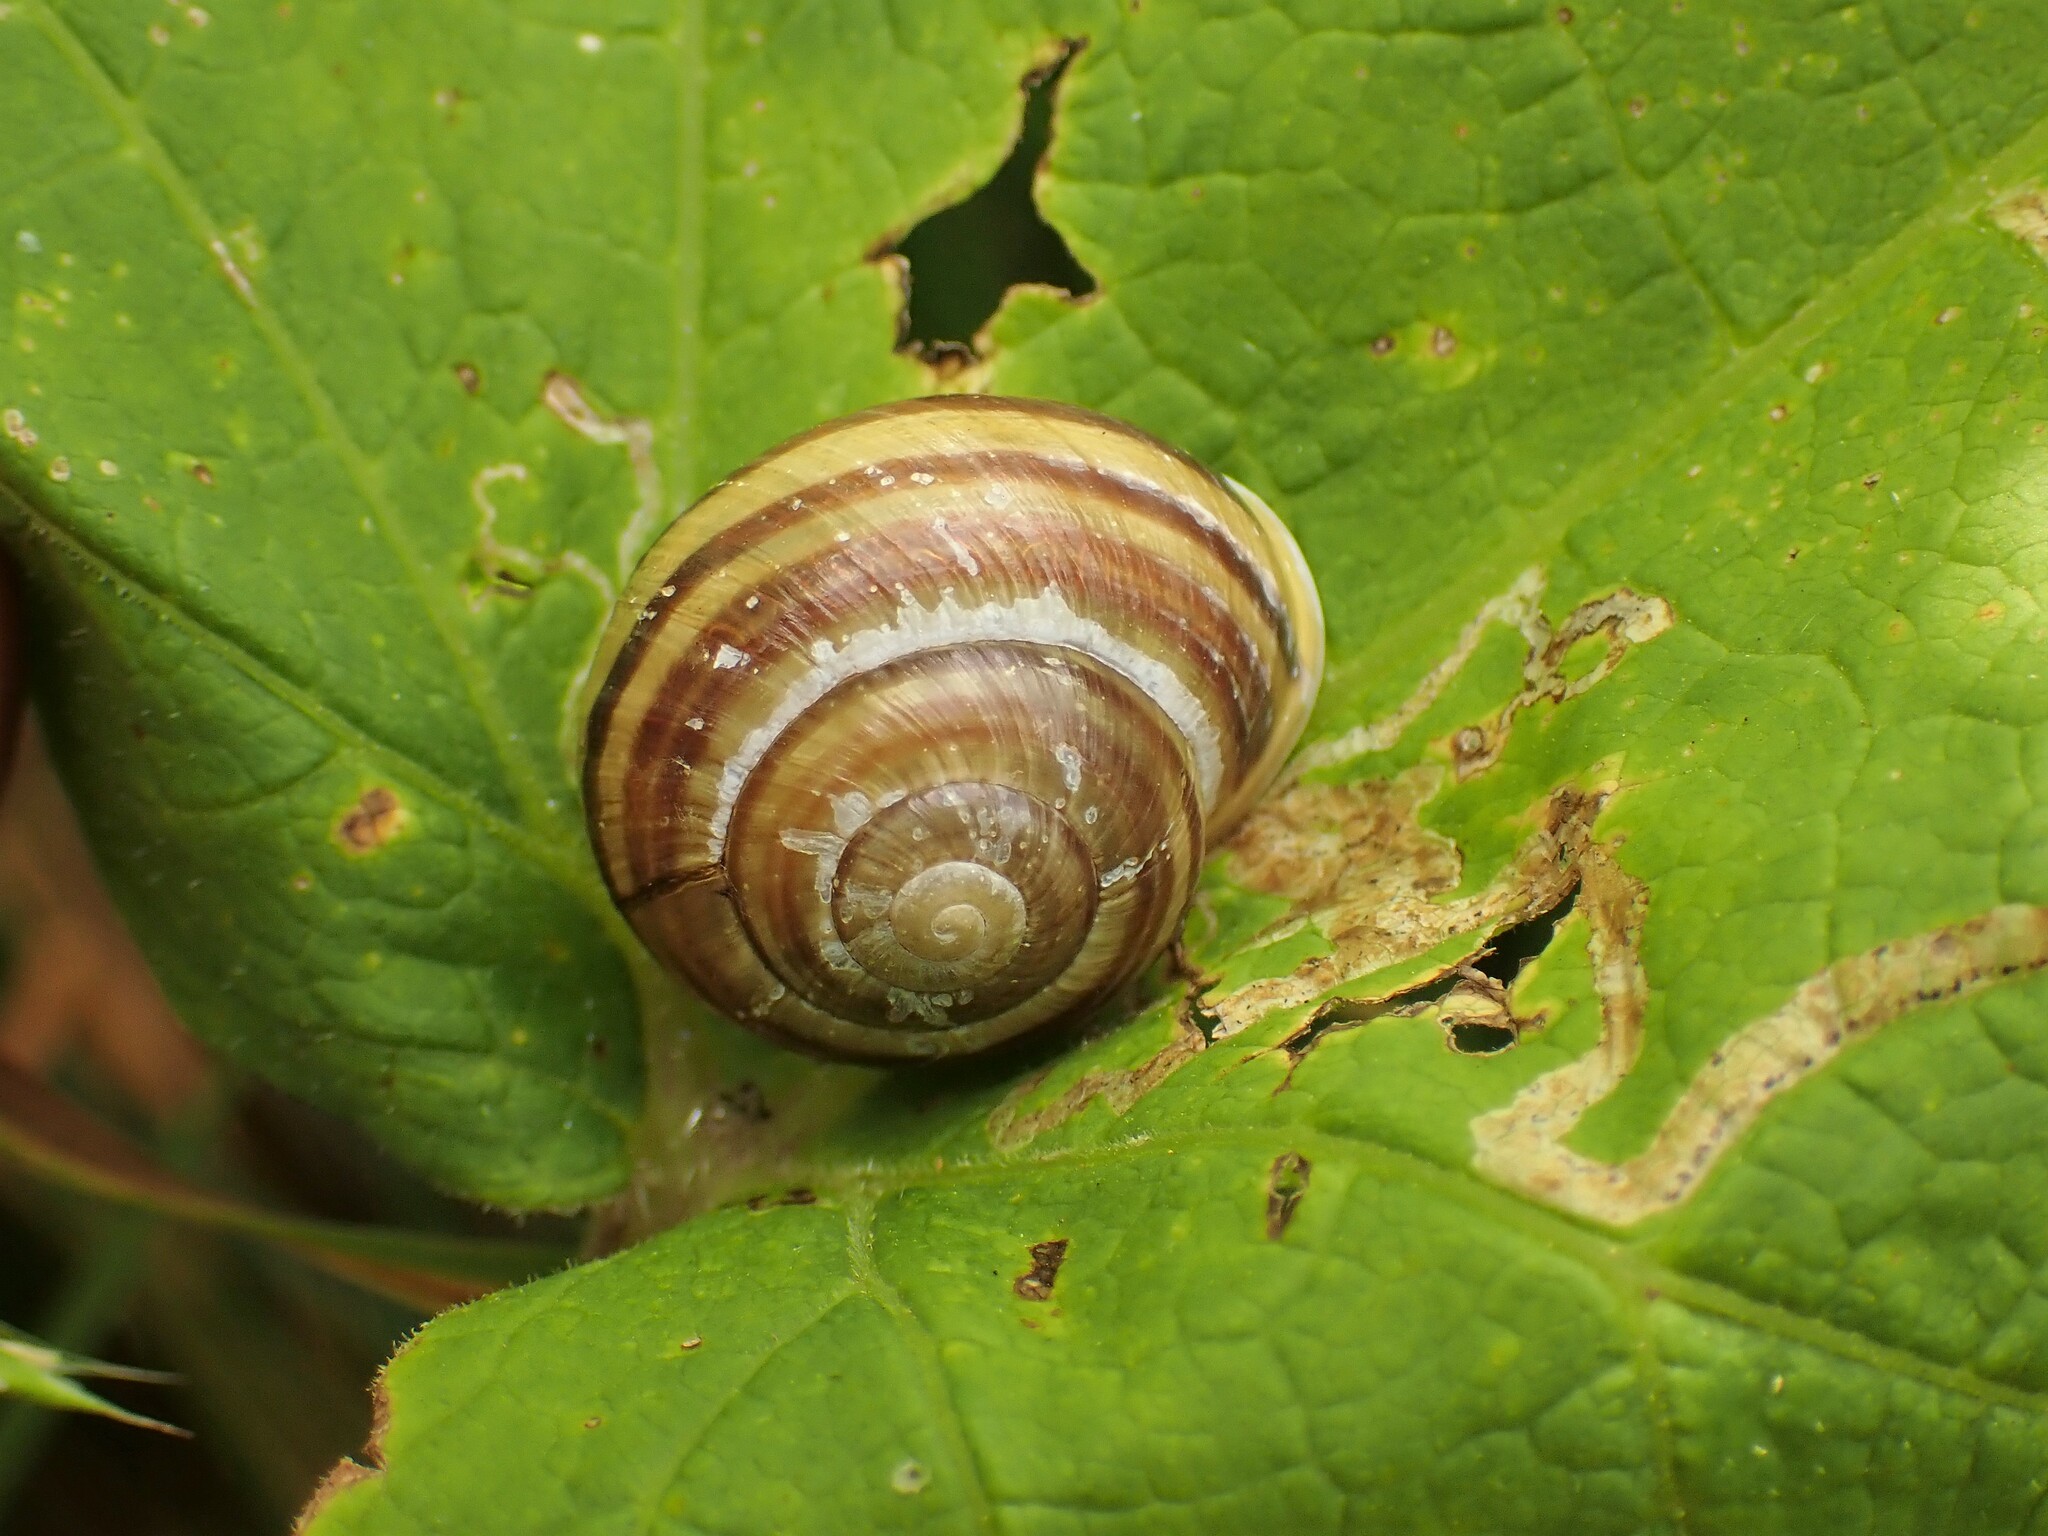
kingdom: Animalia
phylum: Mollusca
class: Gastropoda
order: Stylommatophora
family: Helicidae
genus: Cepaea
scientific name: Cepaea hortensis
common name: White-lip gardensnail
